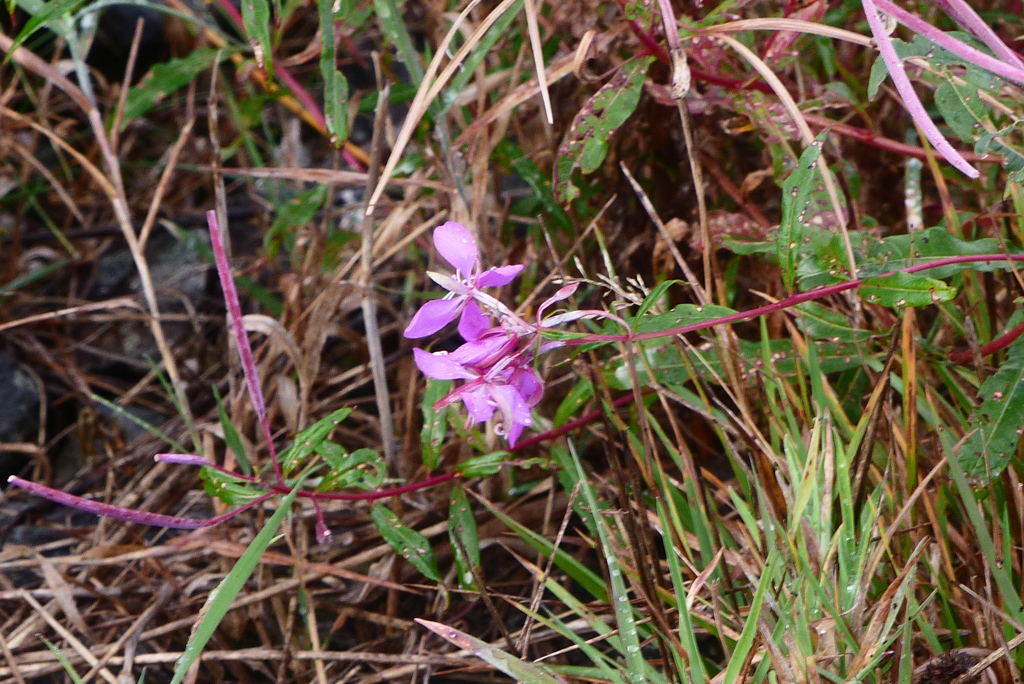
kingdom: Plantae
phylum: Tracheophyta
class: Magnoliopsida
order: Myrtales
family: Onagraceae
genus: Chamaenerion
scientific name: Chamaenerion angustifolium
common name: Fireweed
